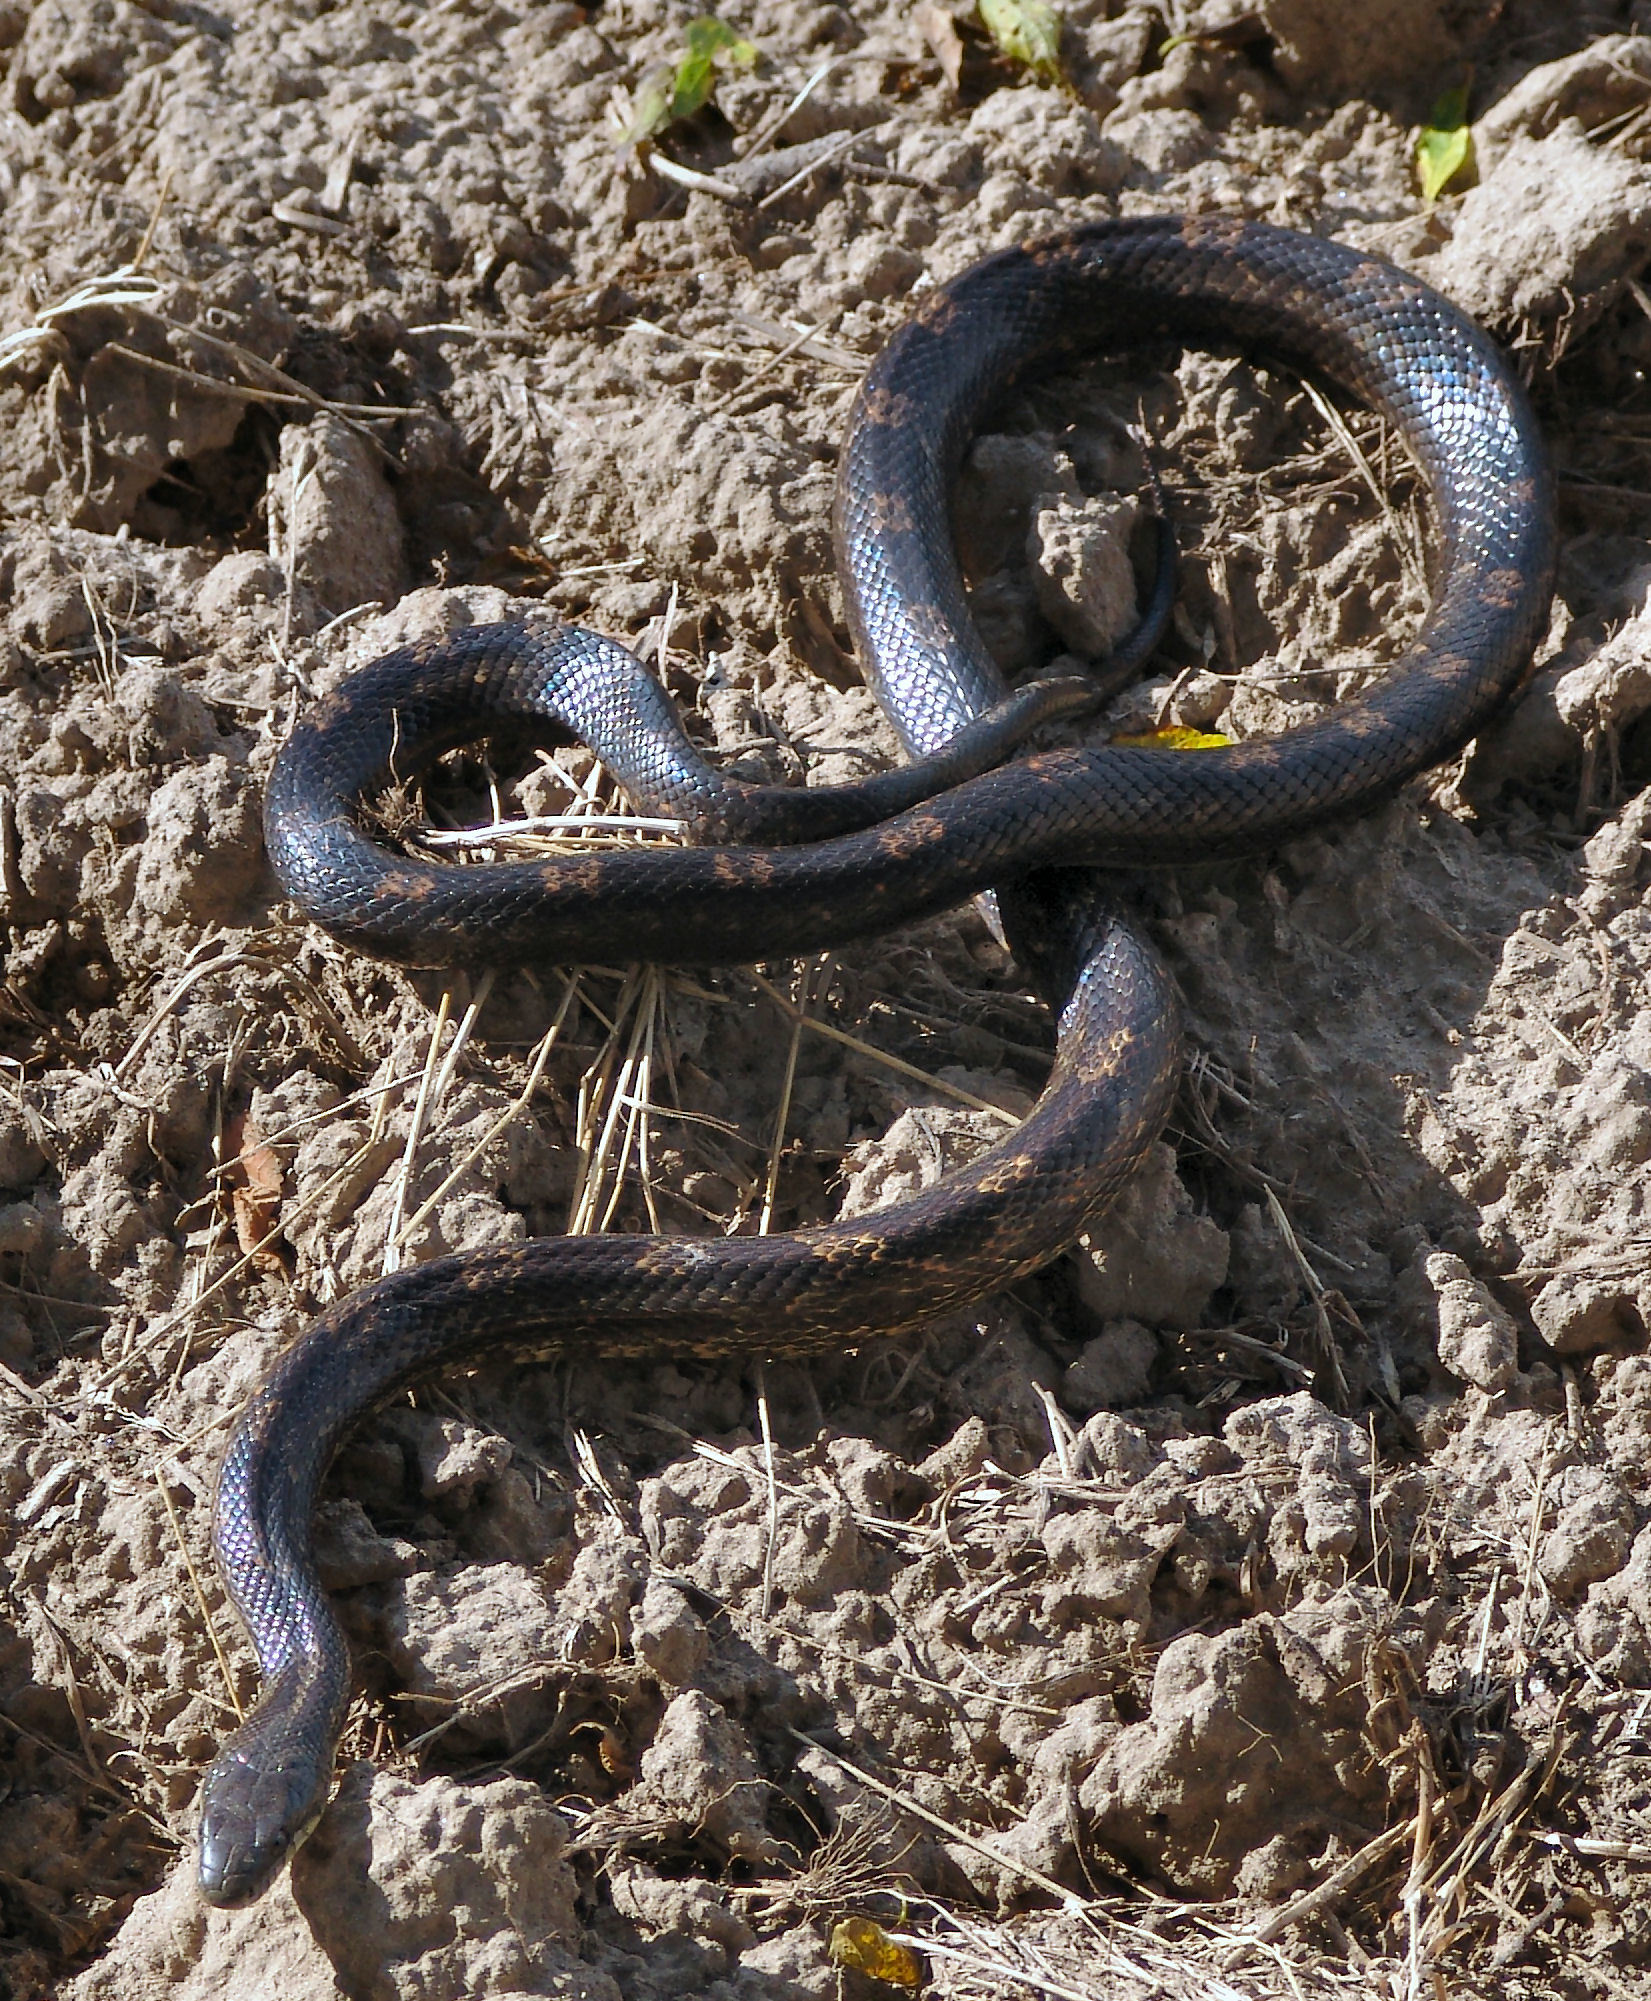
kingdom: Animalia
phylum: Chordata
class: Squamata
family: Colubridae
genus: Pantherophis
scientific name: Pantherophis obsoletus
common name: Black rat snake
